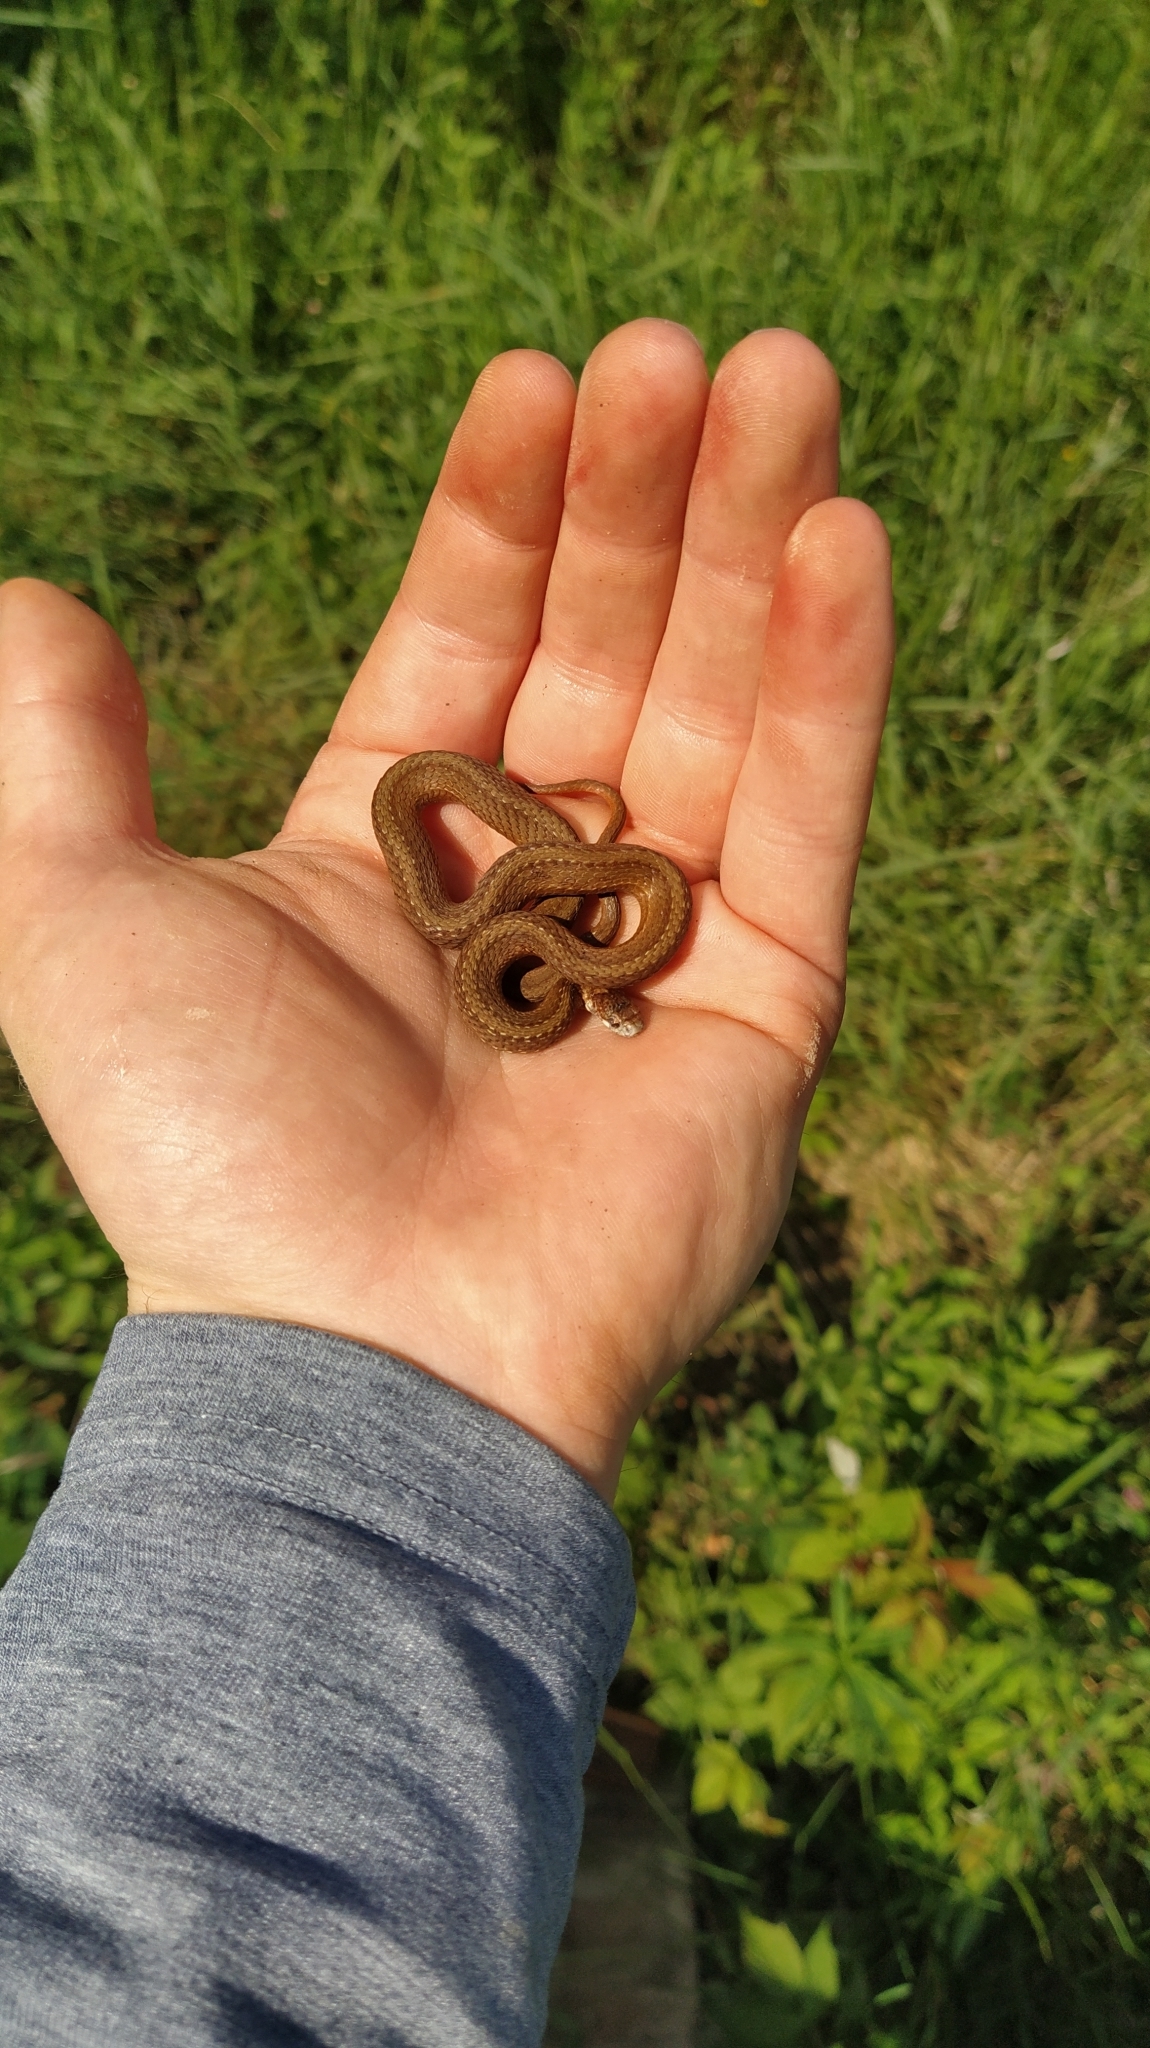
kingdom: Animalia
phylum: Chordata
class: Squamata
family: Colubridae
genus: Storeria
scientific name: Storeria occipitomaculata
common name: Redbelly snake
